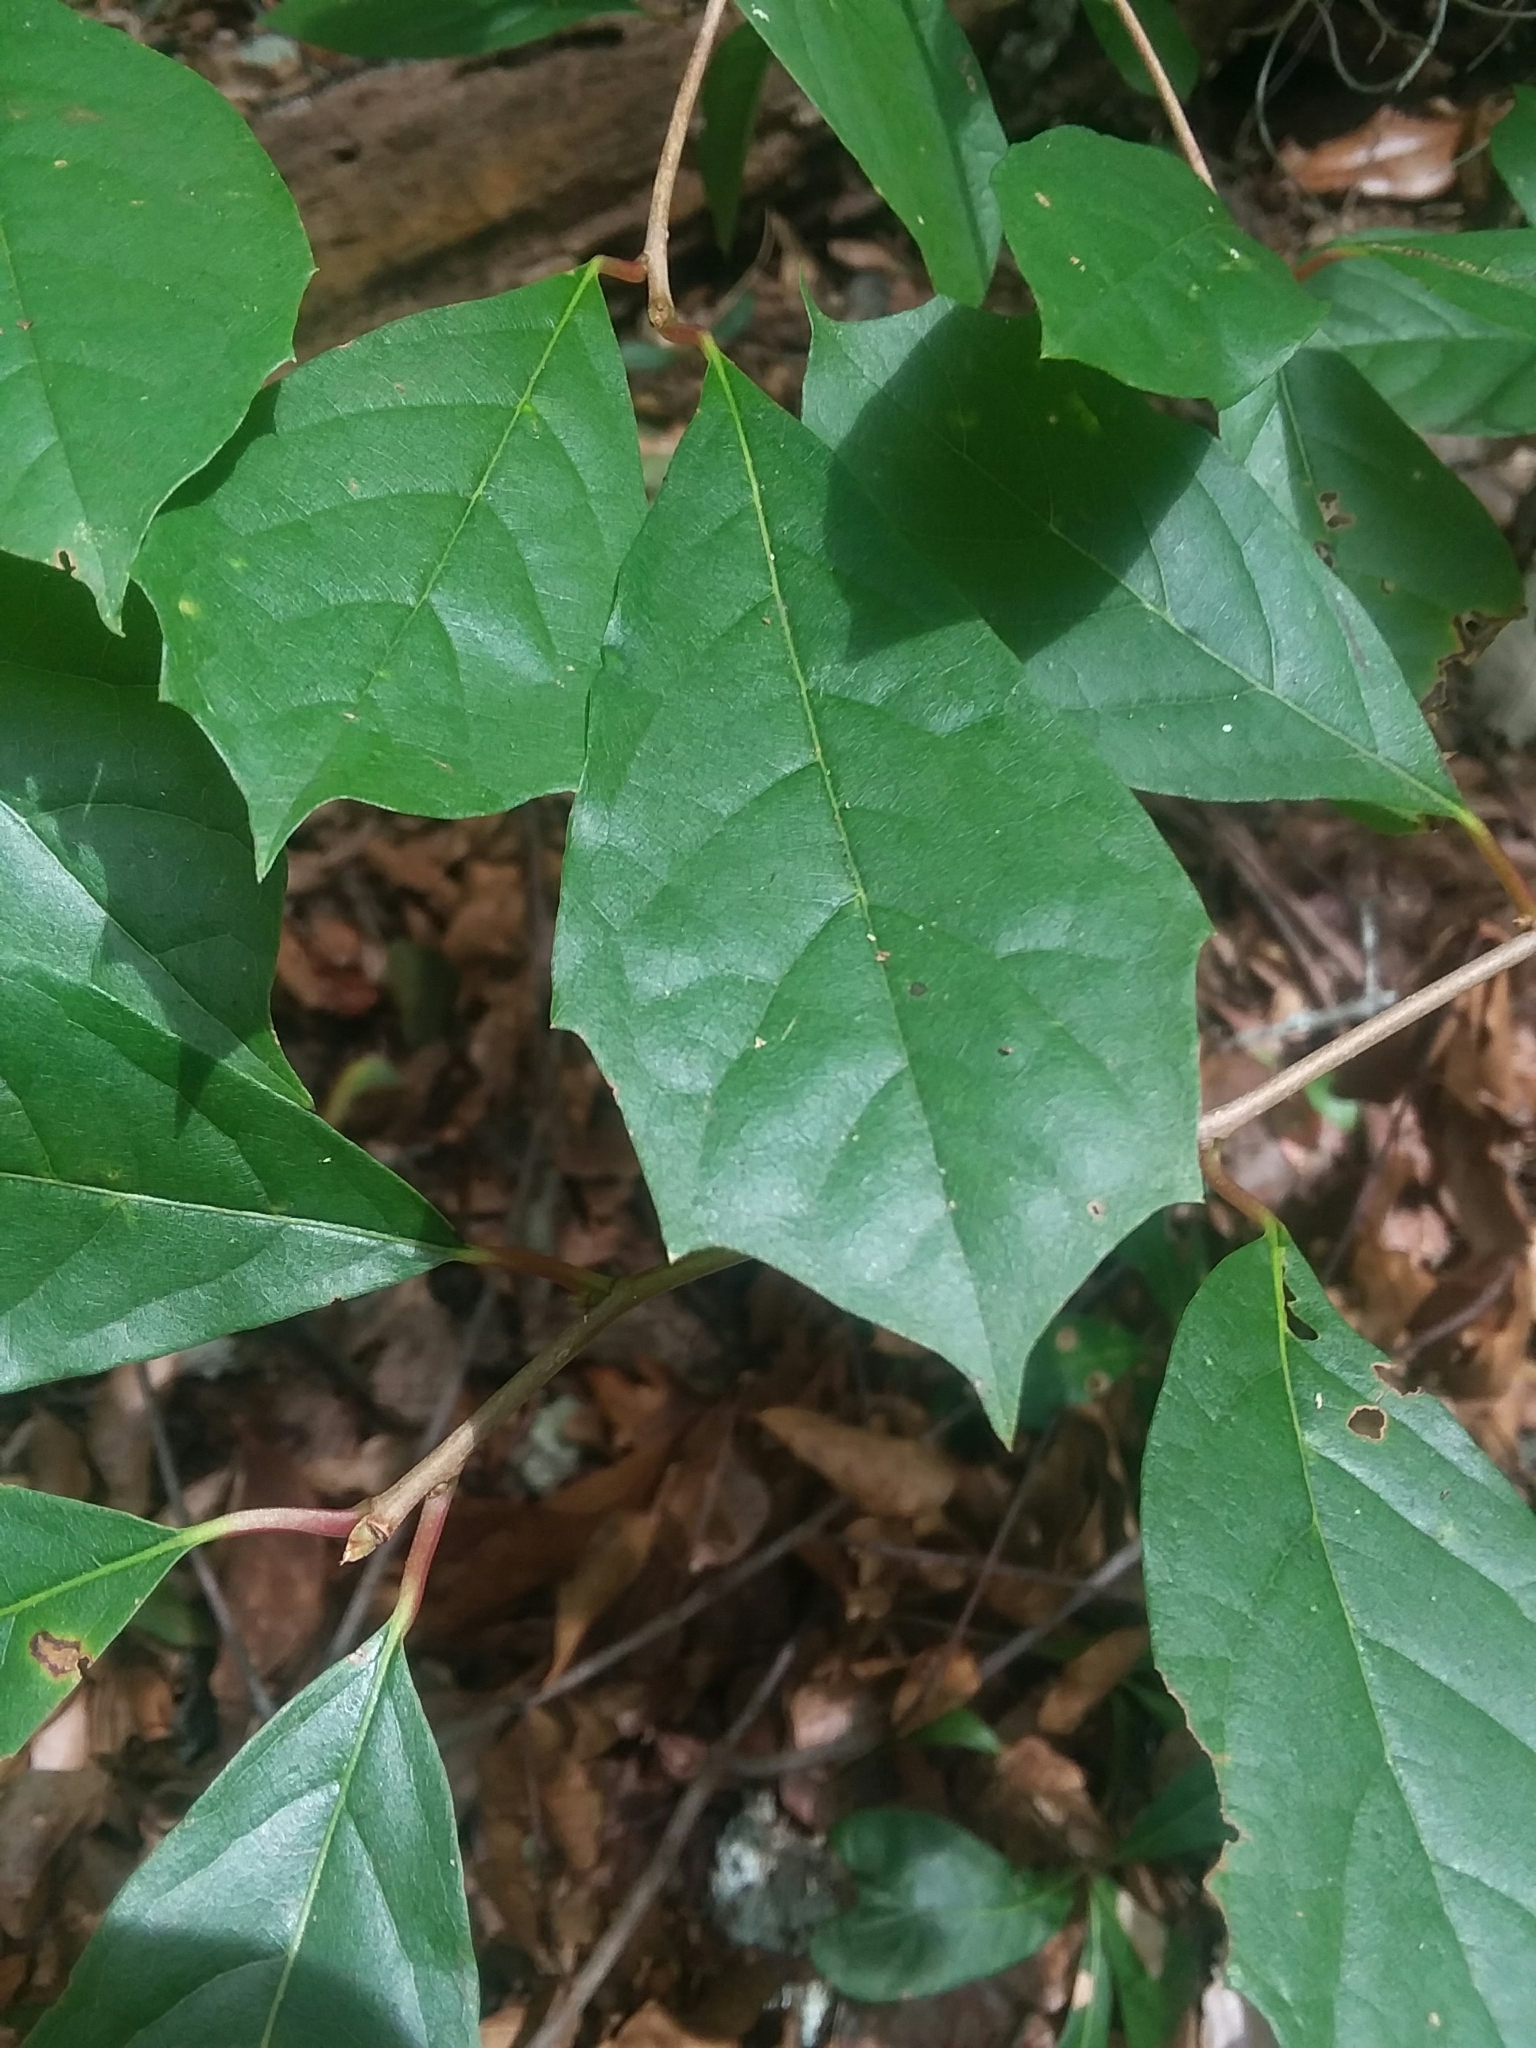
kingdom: Plantae
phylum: Tracheophyta
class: Magnoliopsida
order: Cornales
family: Nyssaceae
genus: Nyssa
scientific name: Nyssa sylvatica
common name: Black tupelo
